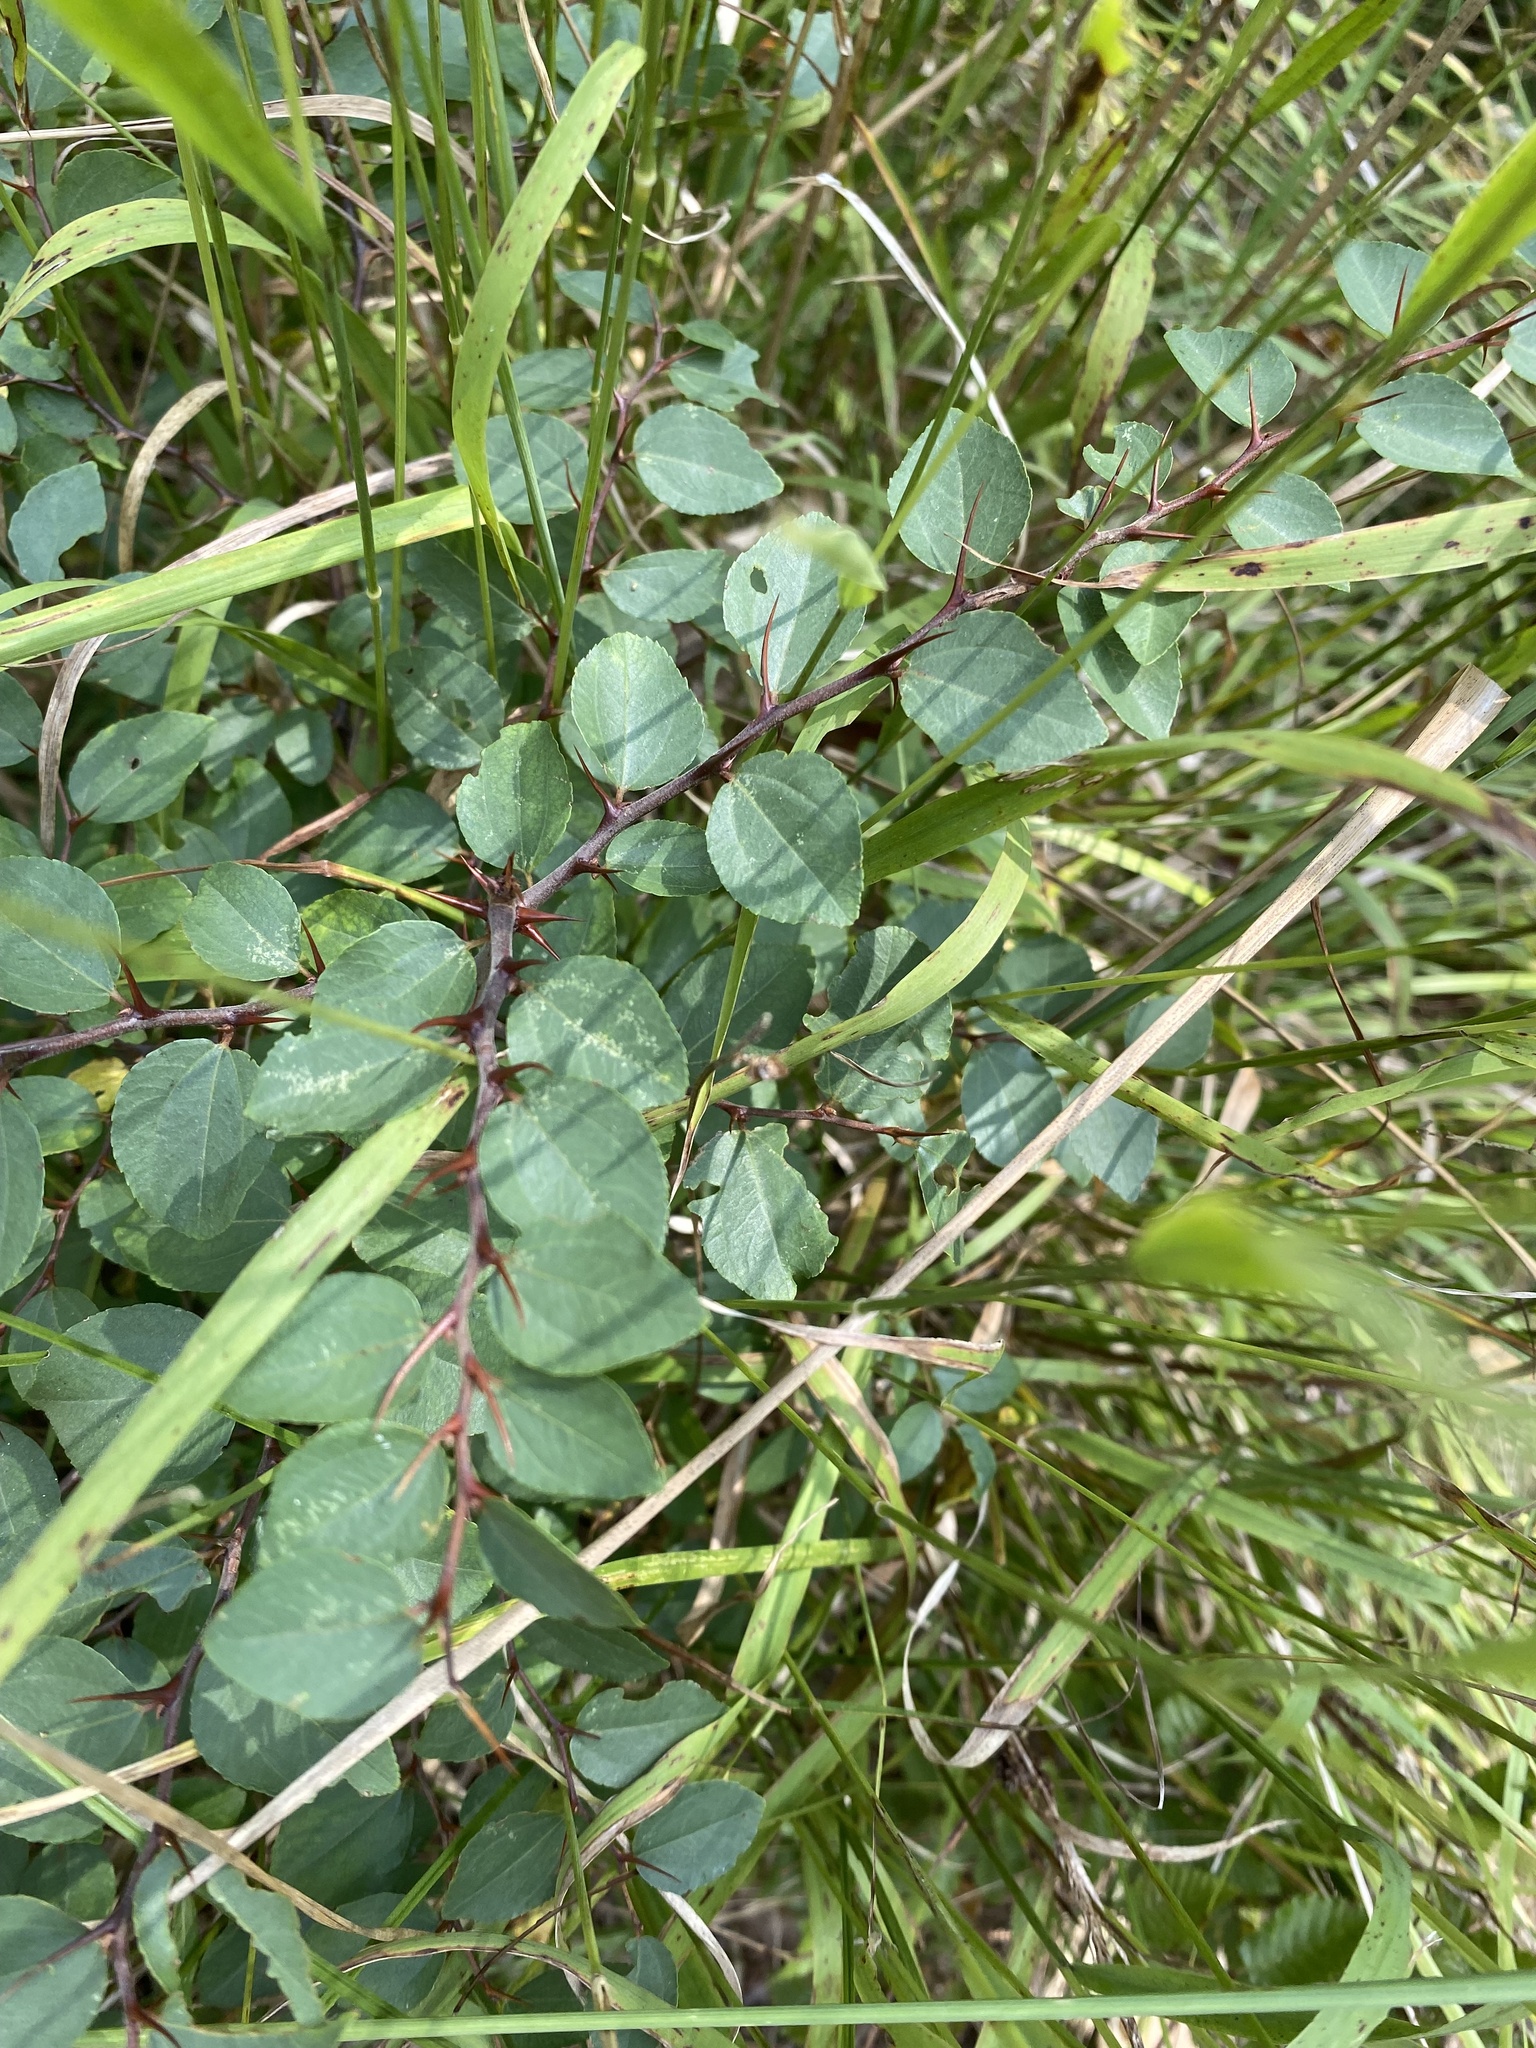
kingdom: Plantae
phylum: Tracheophyta
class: Magnoliopsida
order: Rosales
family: Rhamnaceae
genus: Paliurus
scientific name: Paliurus spina-christi
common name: Jeruselem thorn
